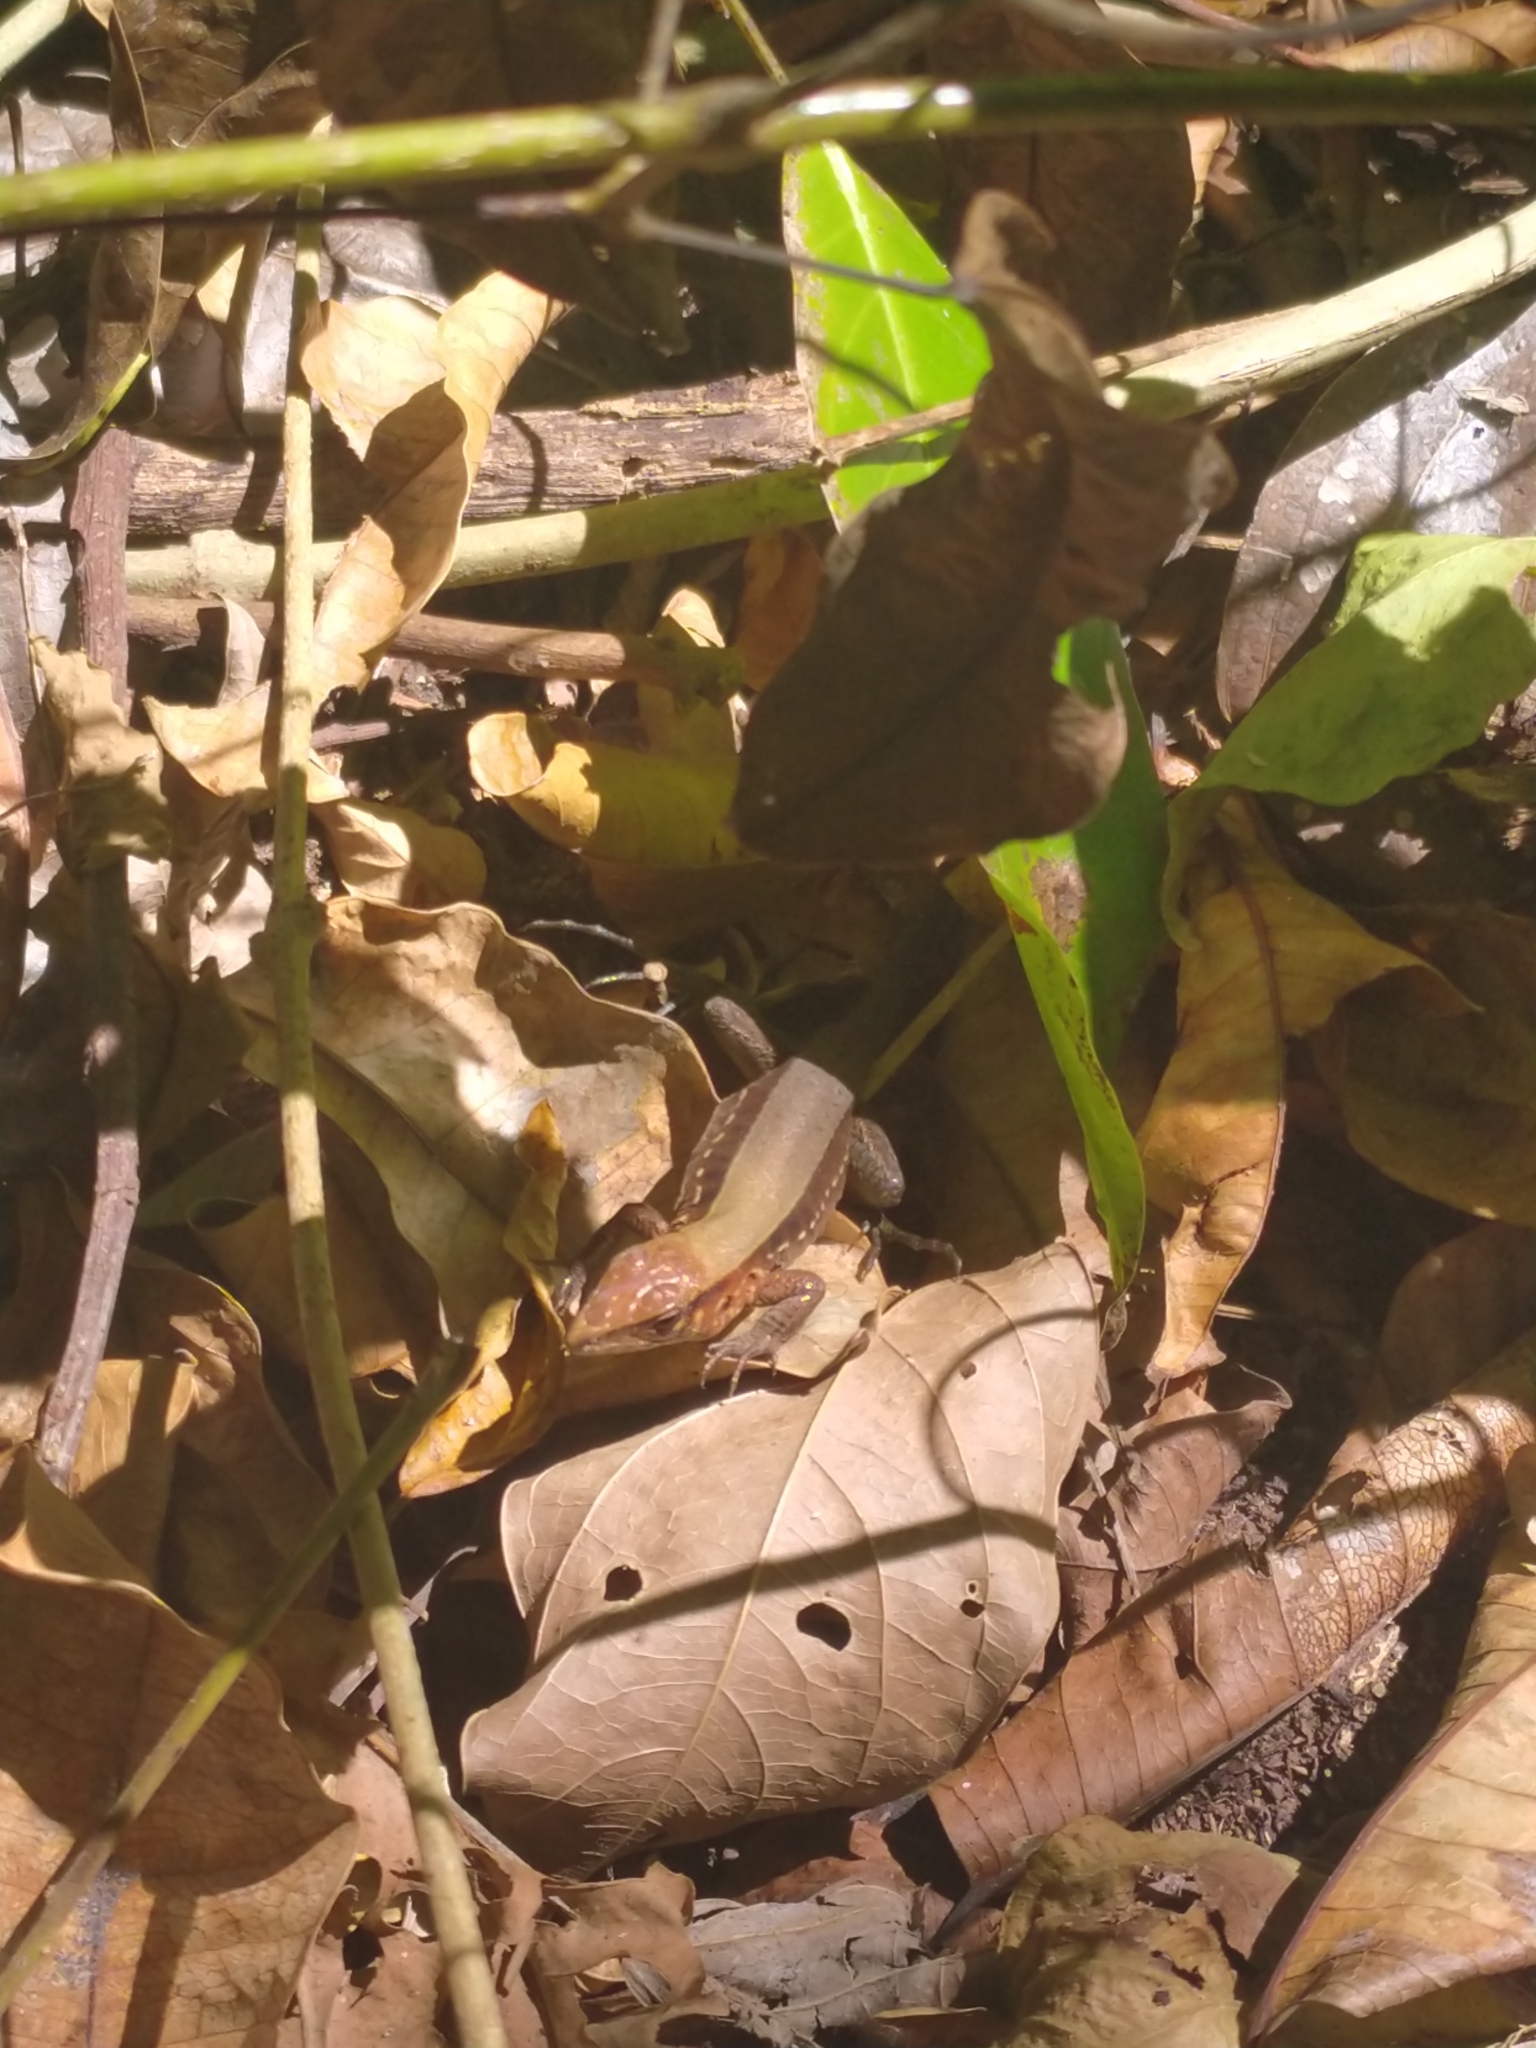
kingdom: Animalia
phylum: Chordata
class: Squamata
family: Teiidae
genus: Holcosus
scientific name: Holcosus undulatus
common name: Rainbow ameiva
